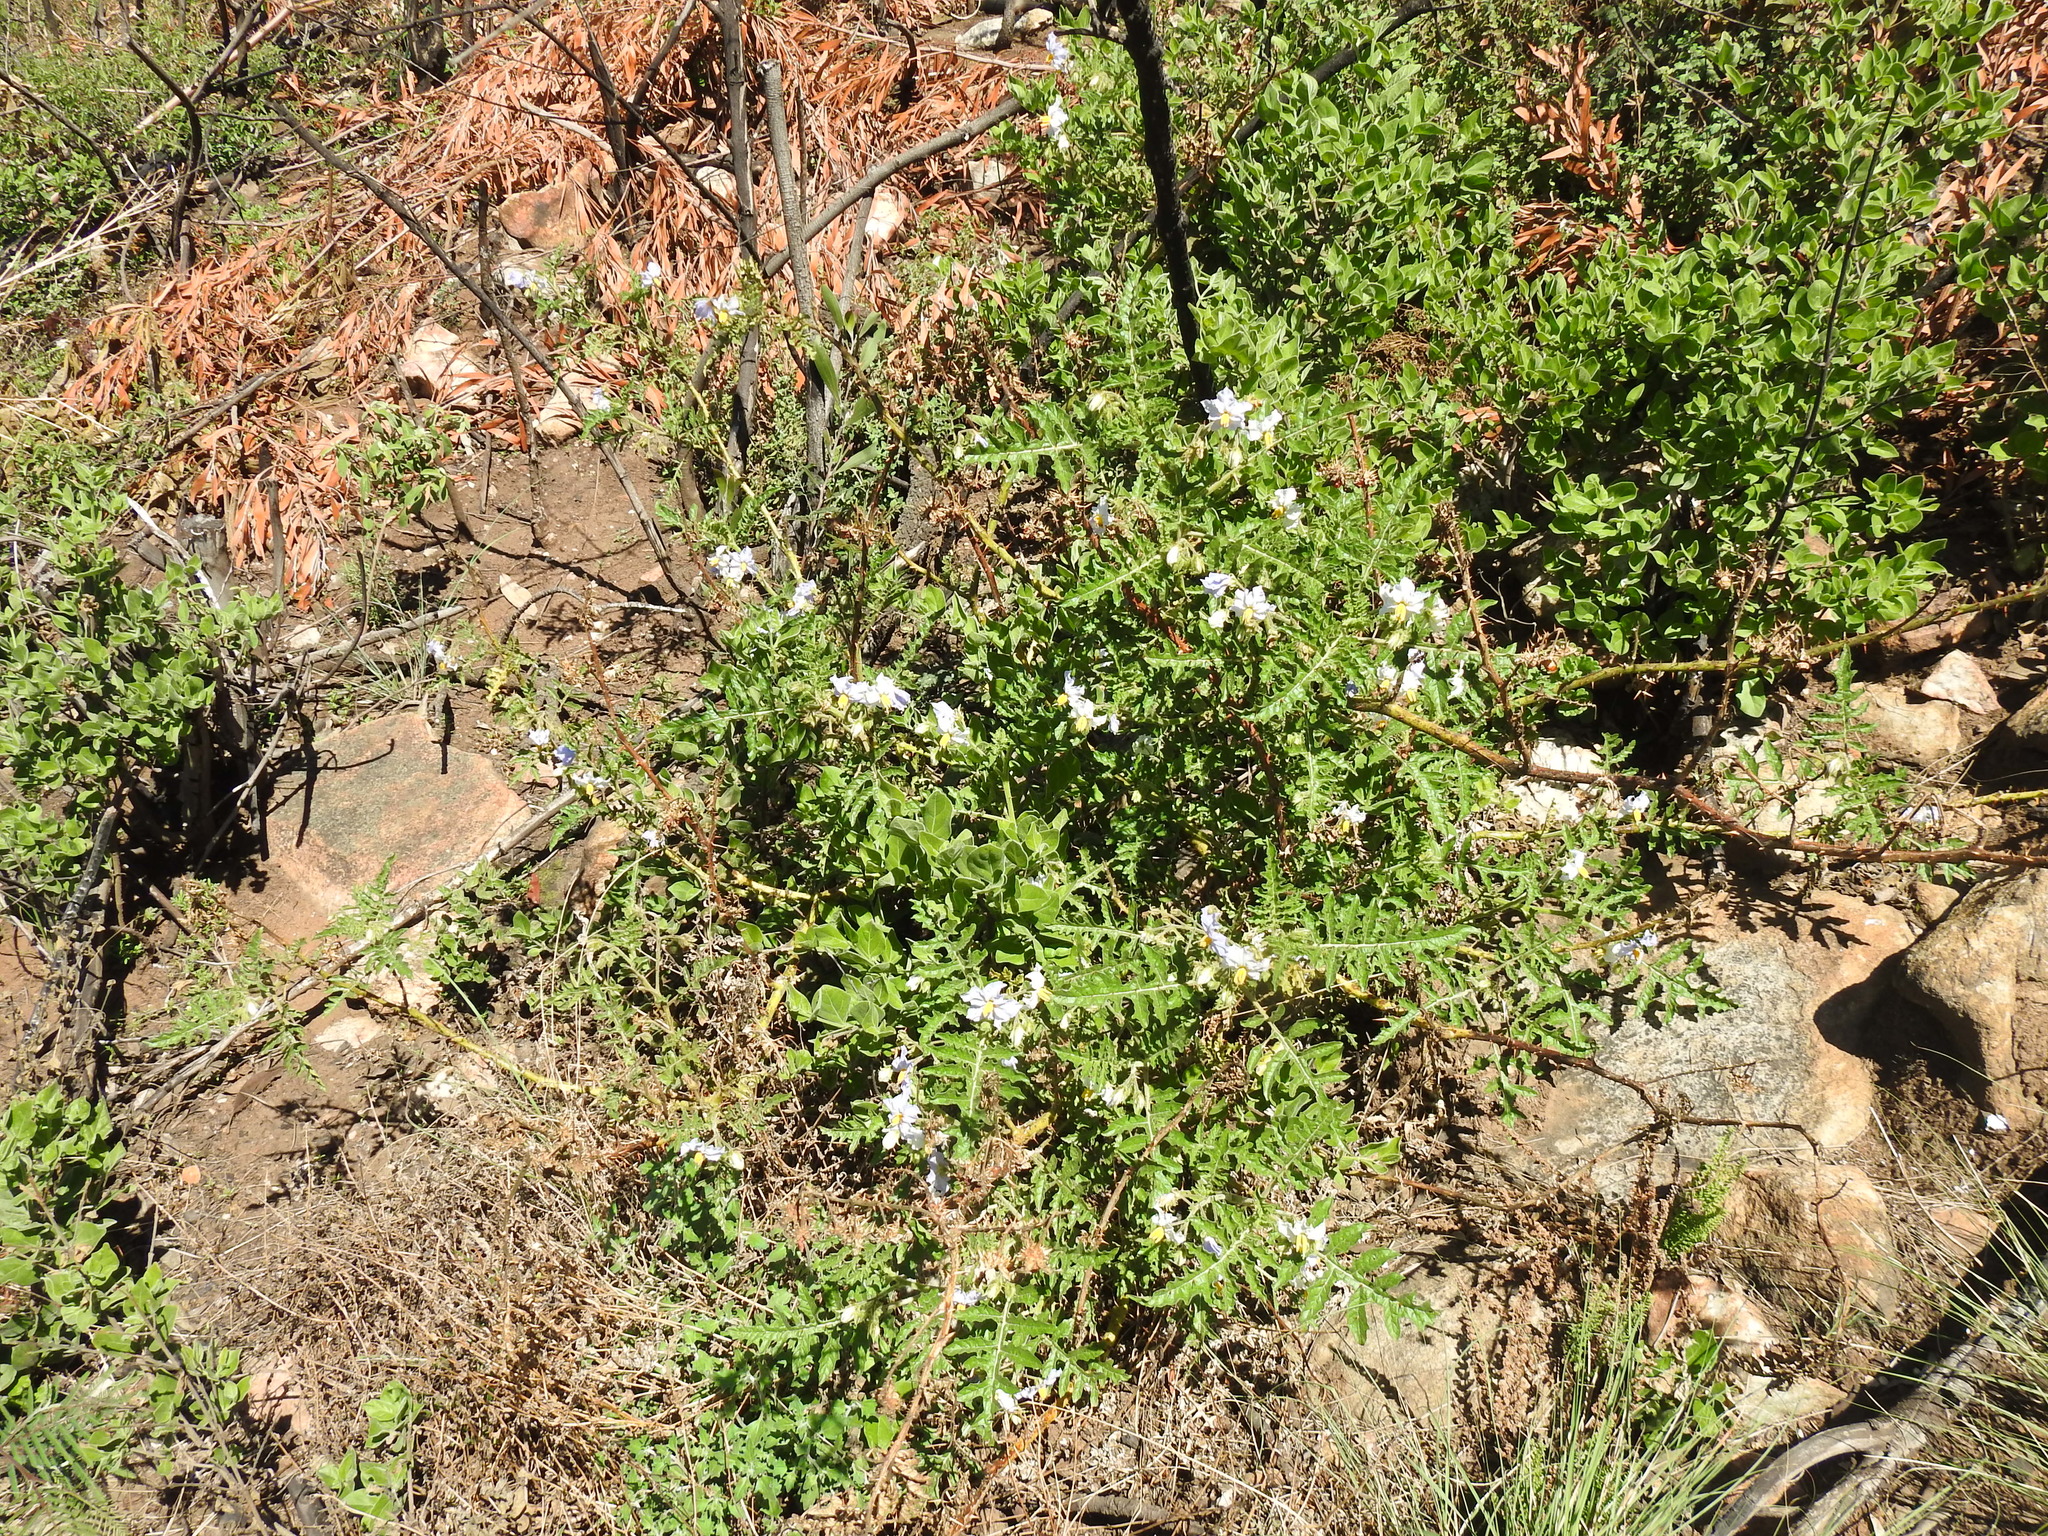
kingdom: Plantae
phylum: Tracheophyta
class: Magnoliopsida
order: Solanales
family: Solanaceae
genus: Solanum
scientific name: Solanum sisymbriifolium
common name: Red buffalo-bur
